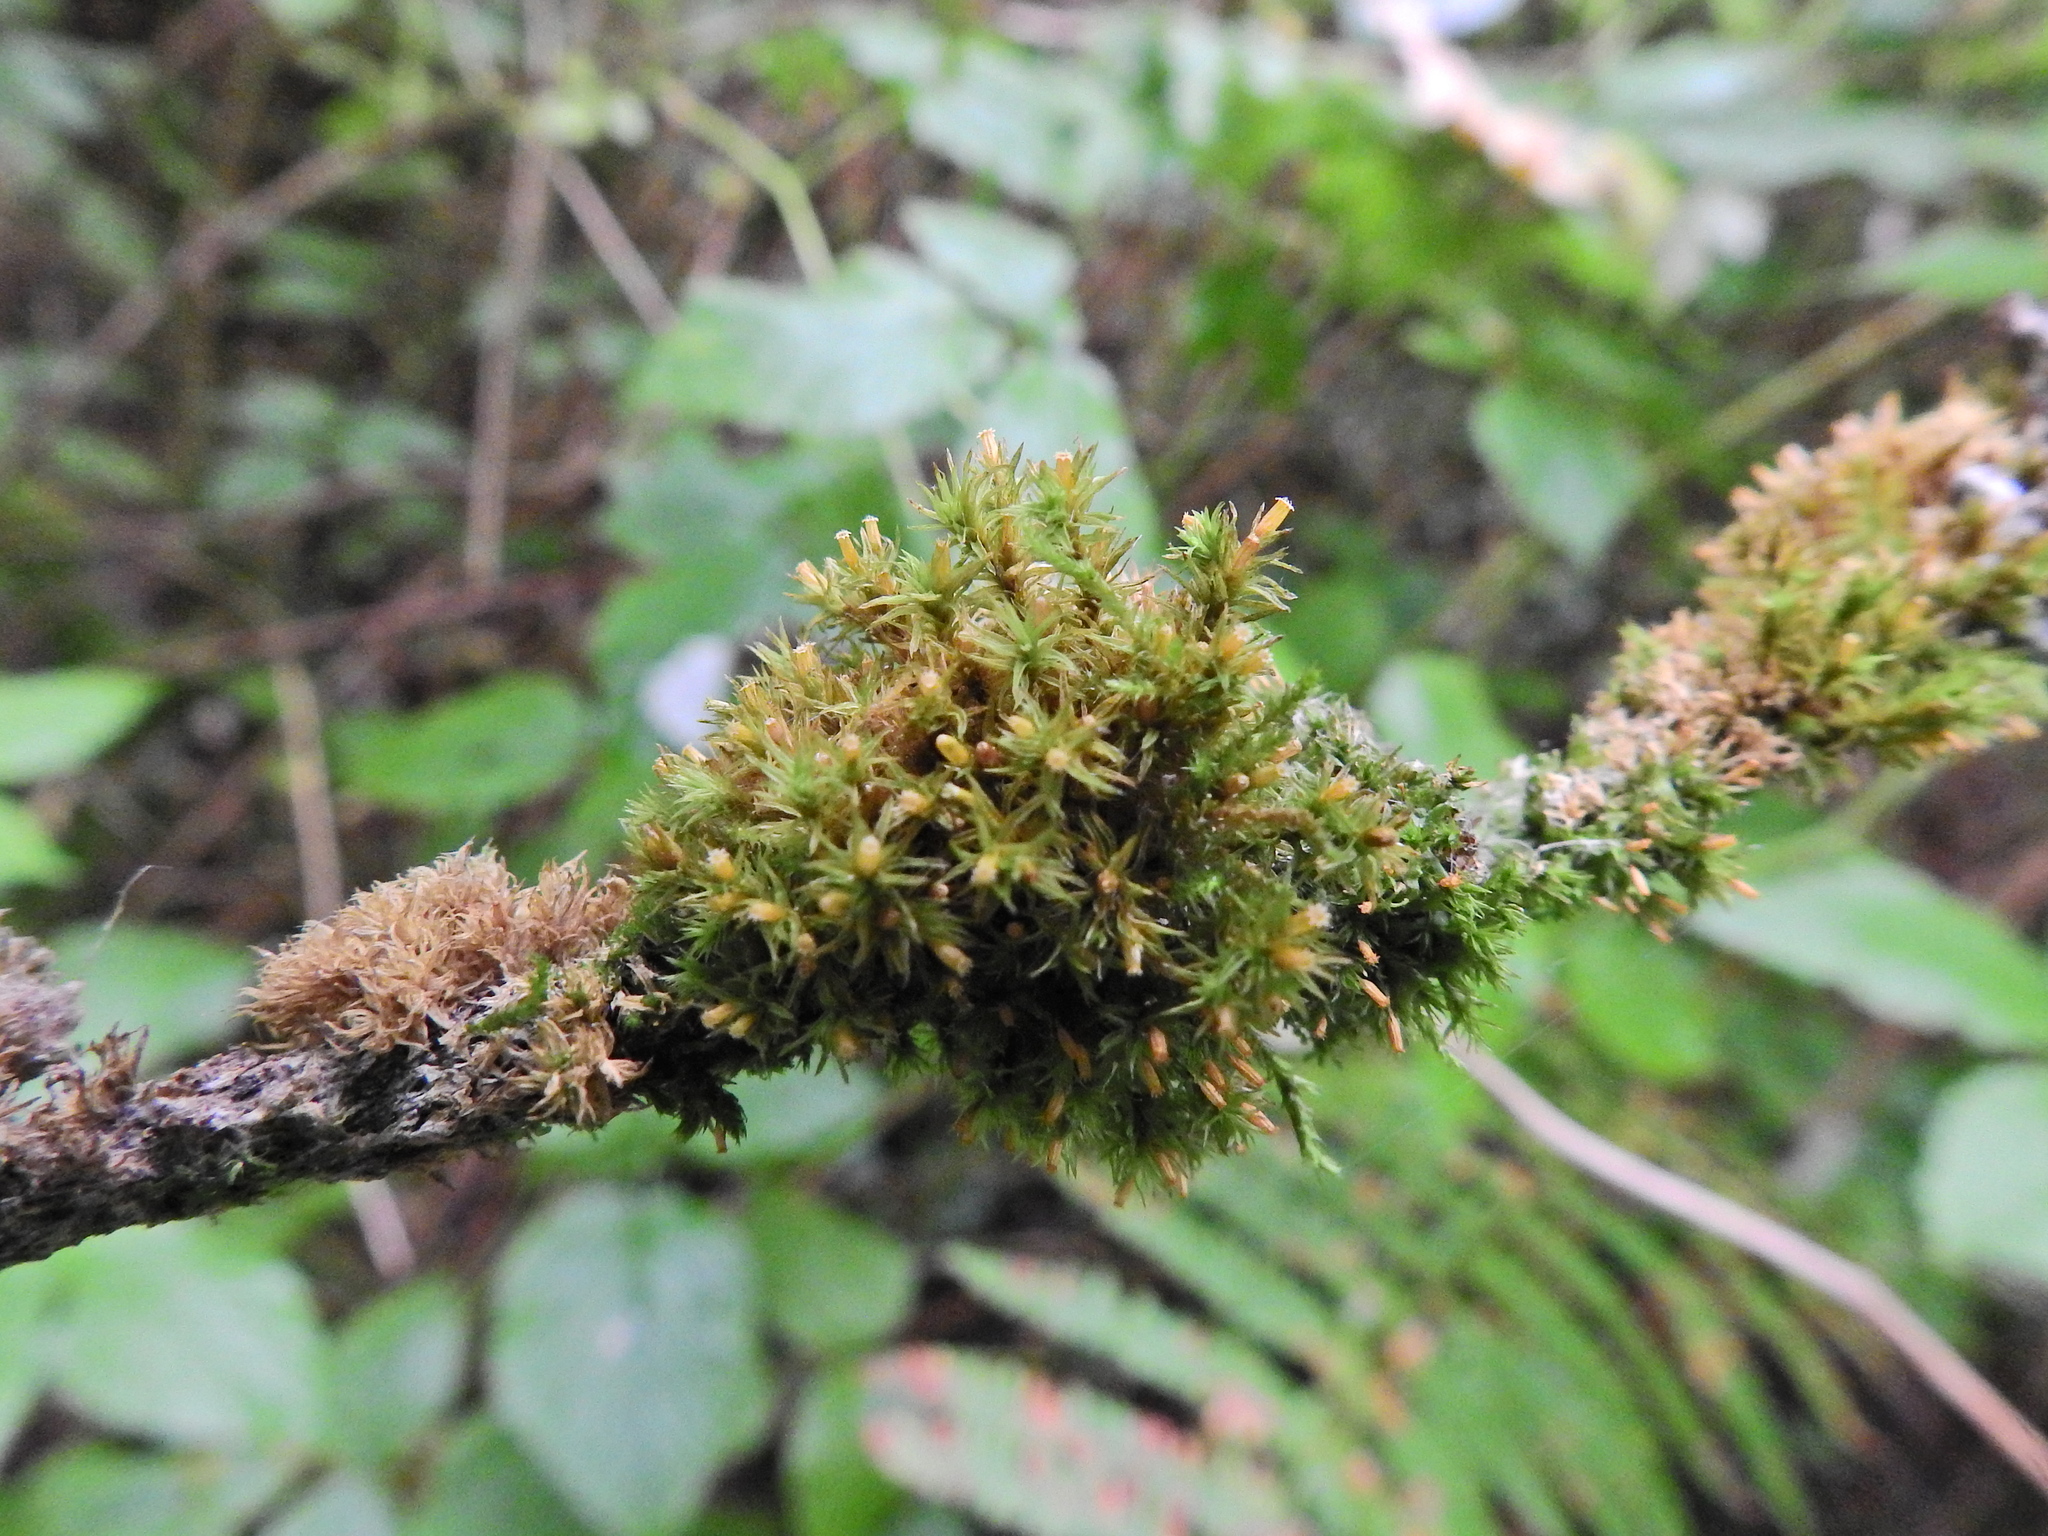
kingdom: Plantae
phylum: Bryophyta
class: Bryopsida
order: Orthotrichales
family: Orthotrichaceae
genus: Lewinskya
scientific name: Lewinskya affinis
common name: Wood bristle-moss
